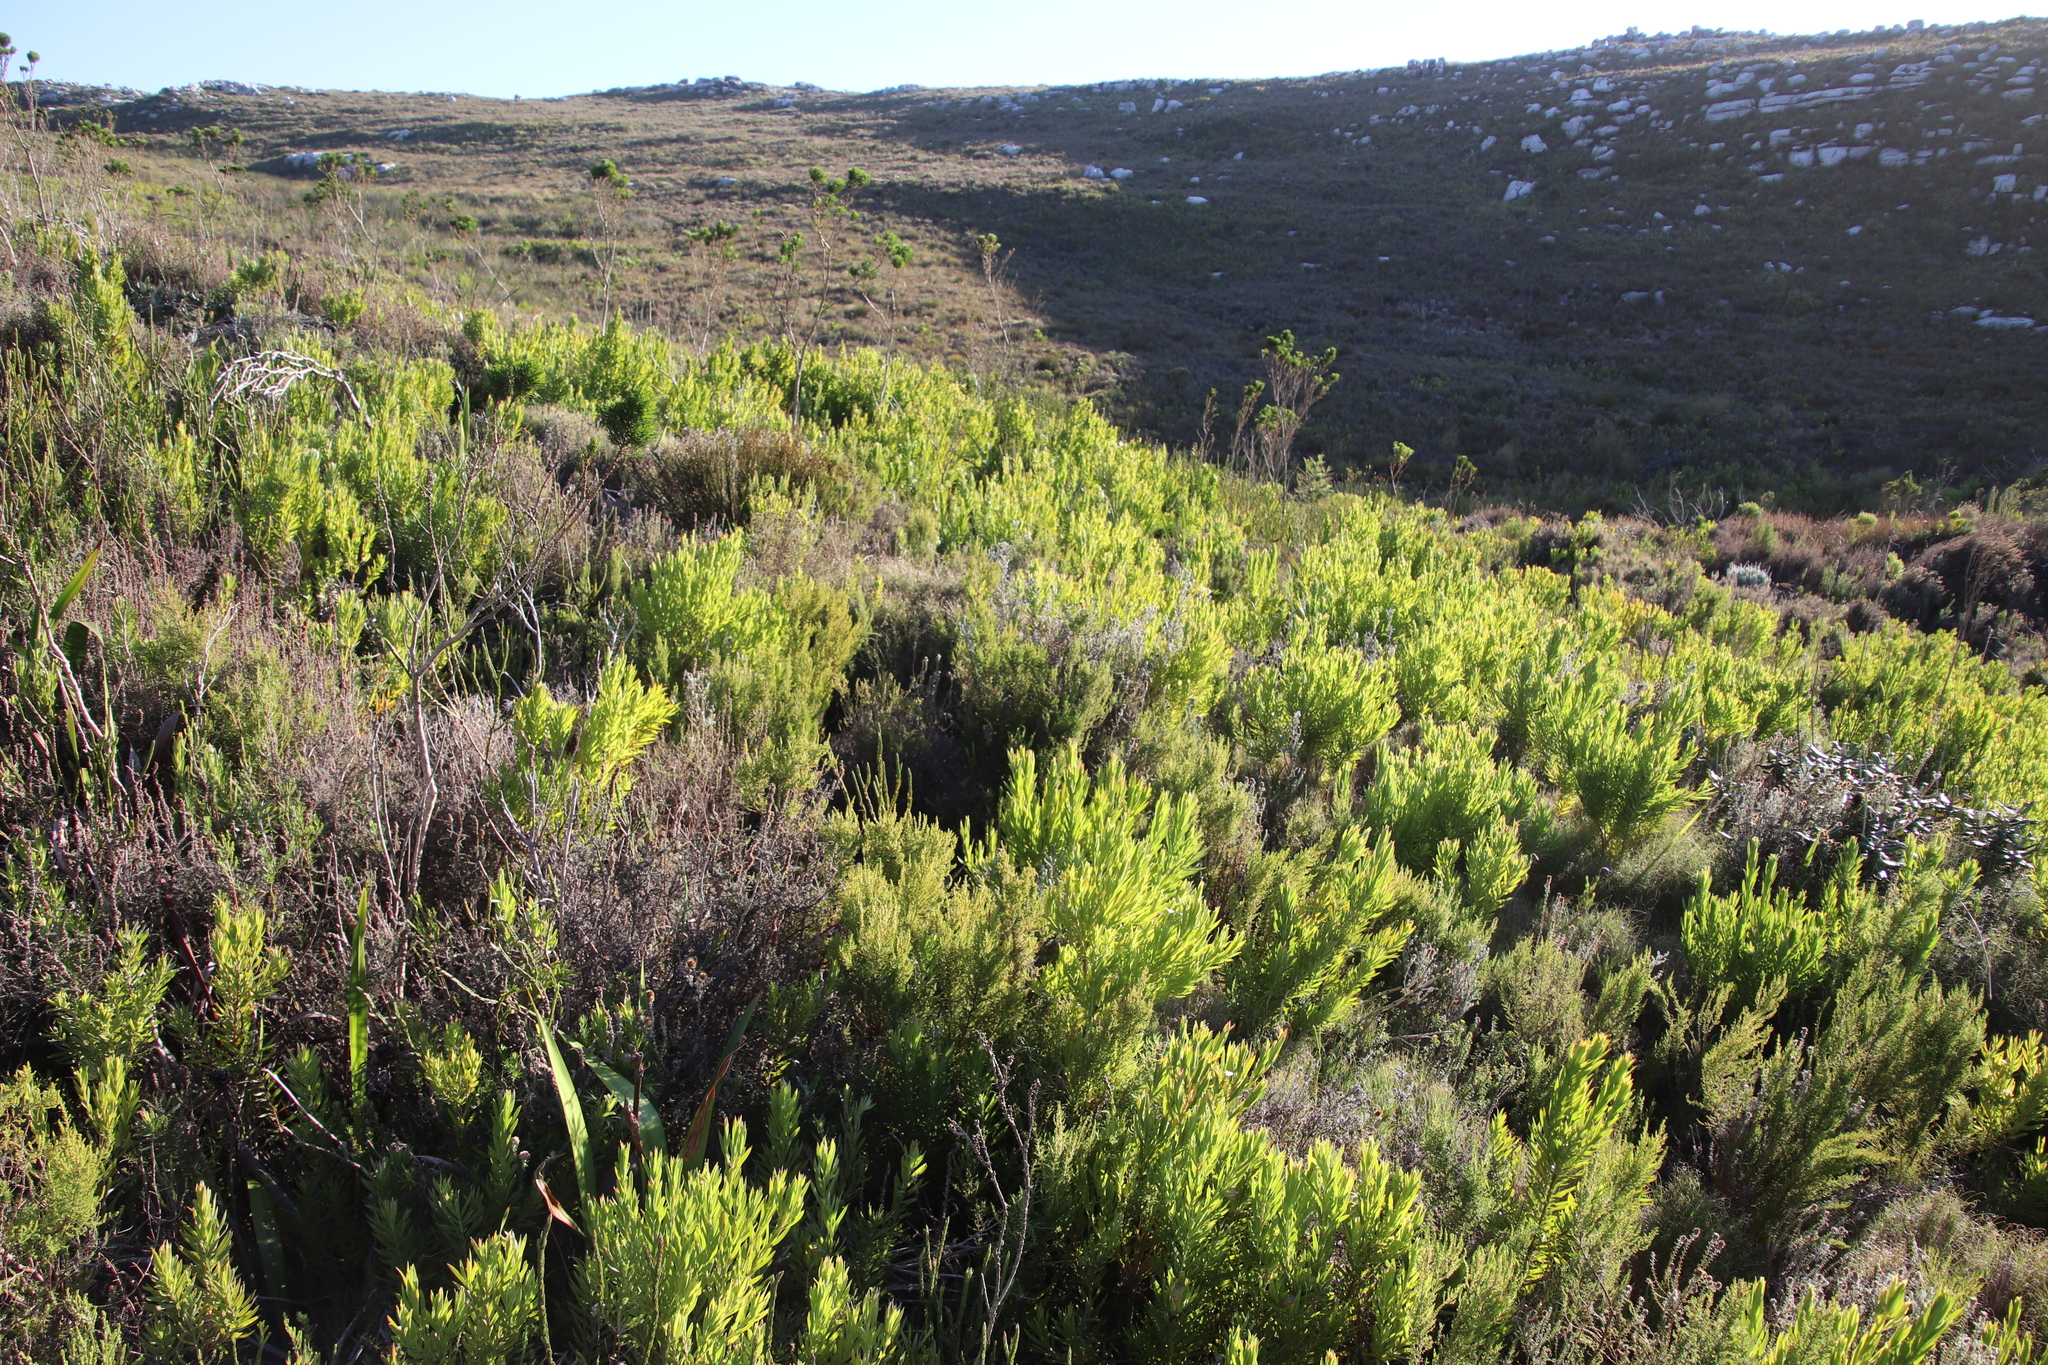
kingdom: Plantae
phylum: Tracheophyta
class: Magnoliopsida
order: Proteales
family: Proteaceae
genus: Leucadendron
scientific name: Leucadendron xanthoconus
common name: Sickle-leaf conebush
